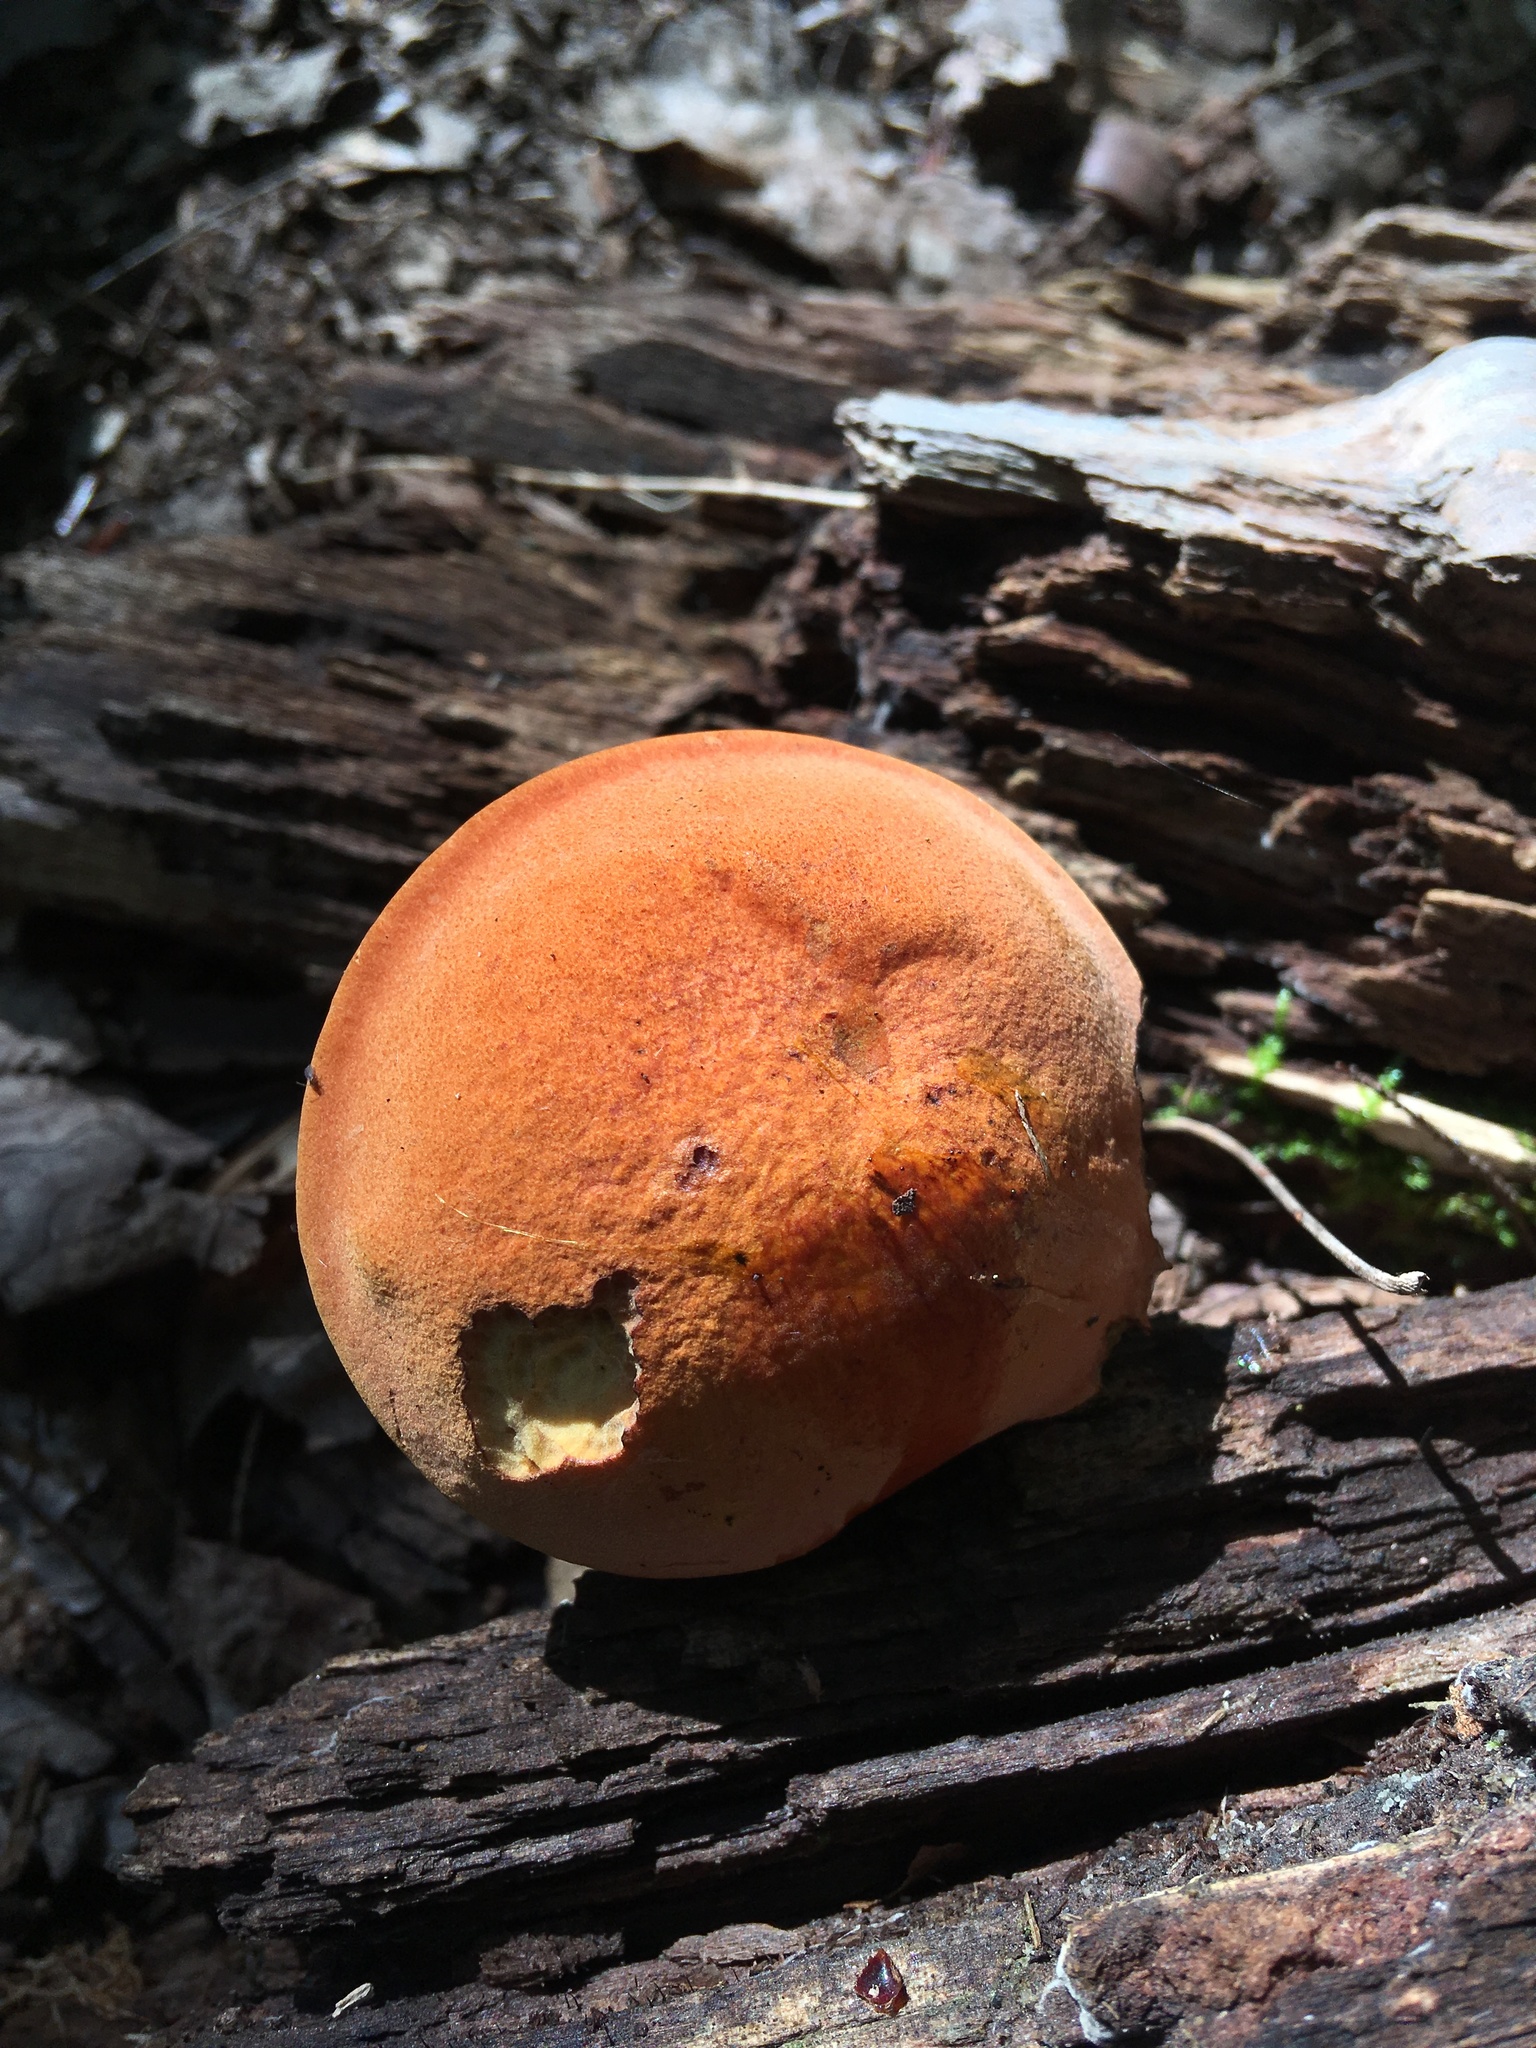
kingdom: Fungi
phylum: Basidiomycota
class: Agaricomycetes
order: Boletales
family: Boletaceae
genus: Boletus
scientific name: Boletus subvelutipes
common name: Red-mouth bolete
